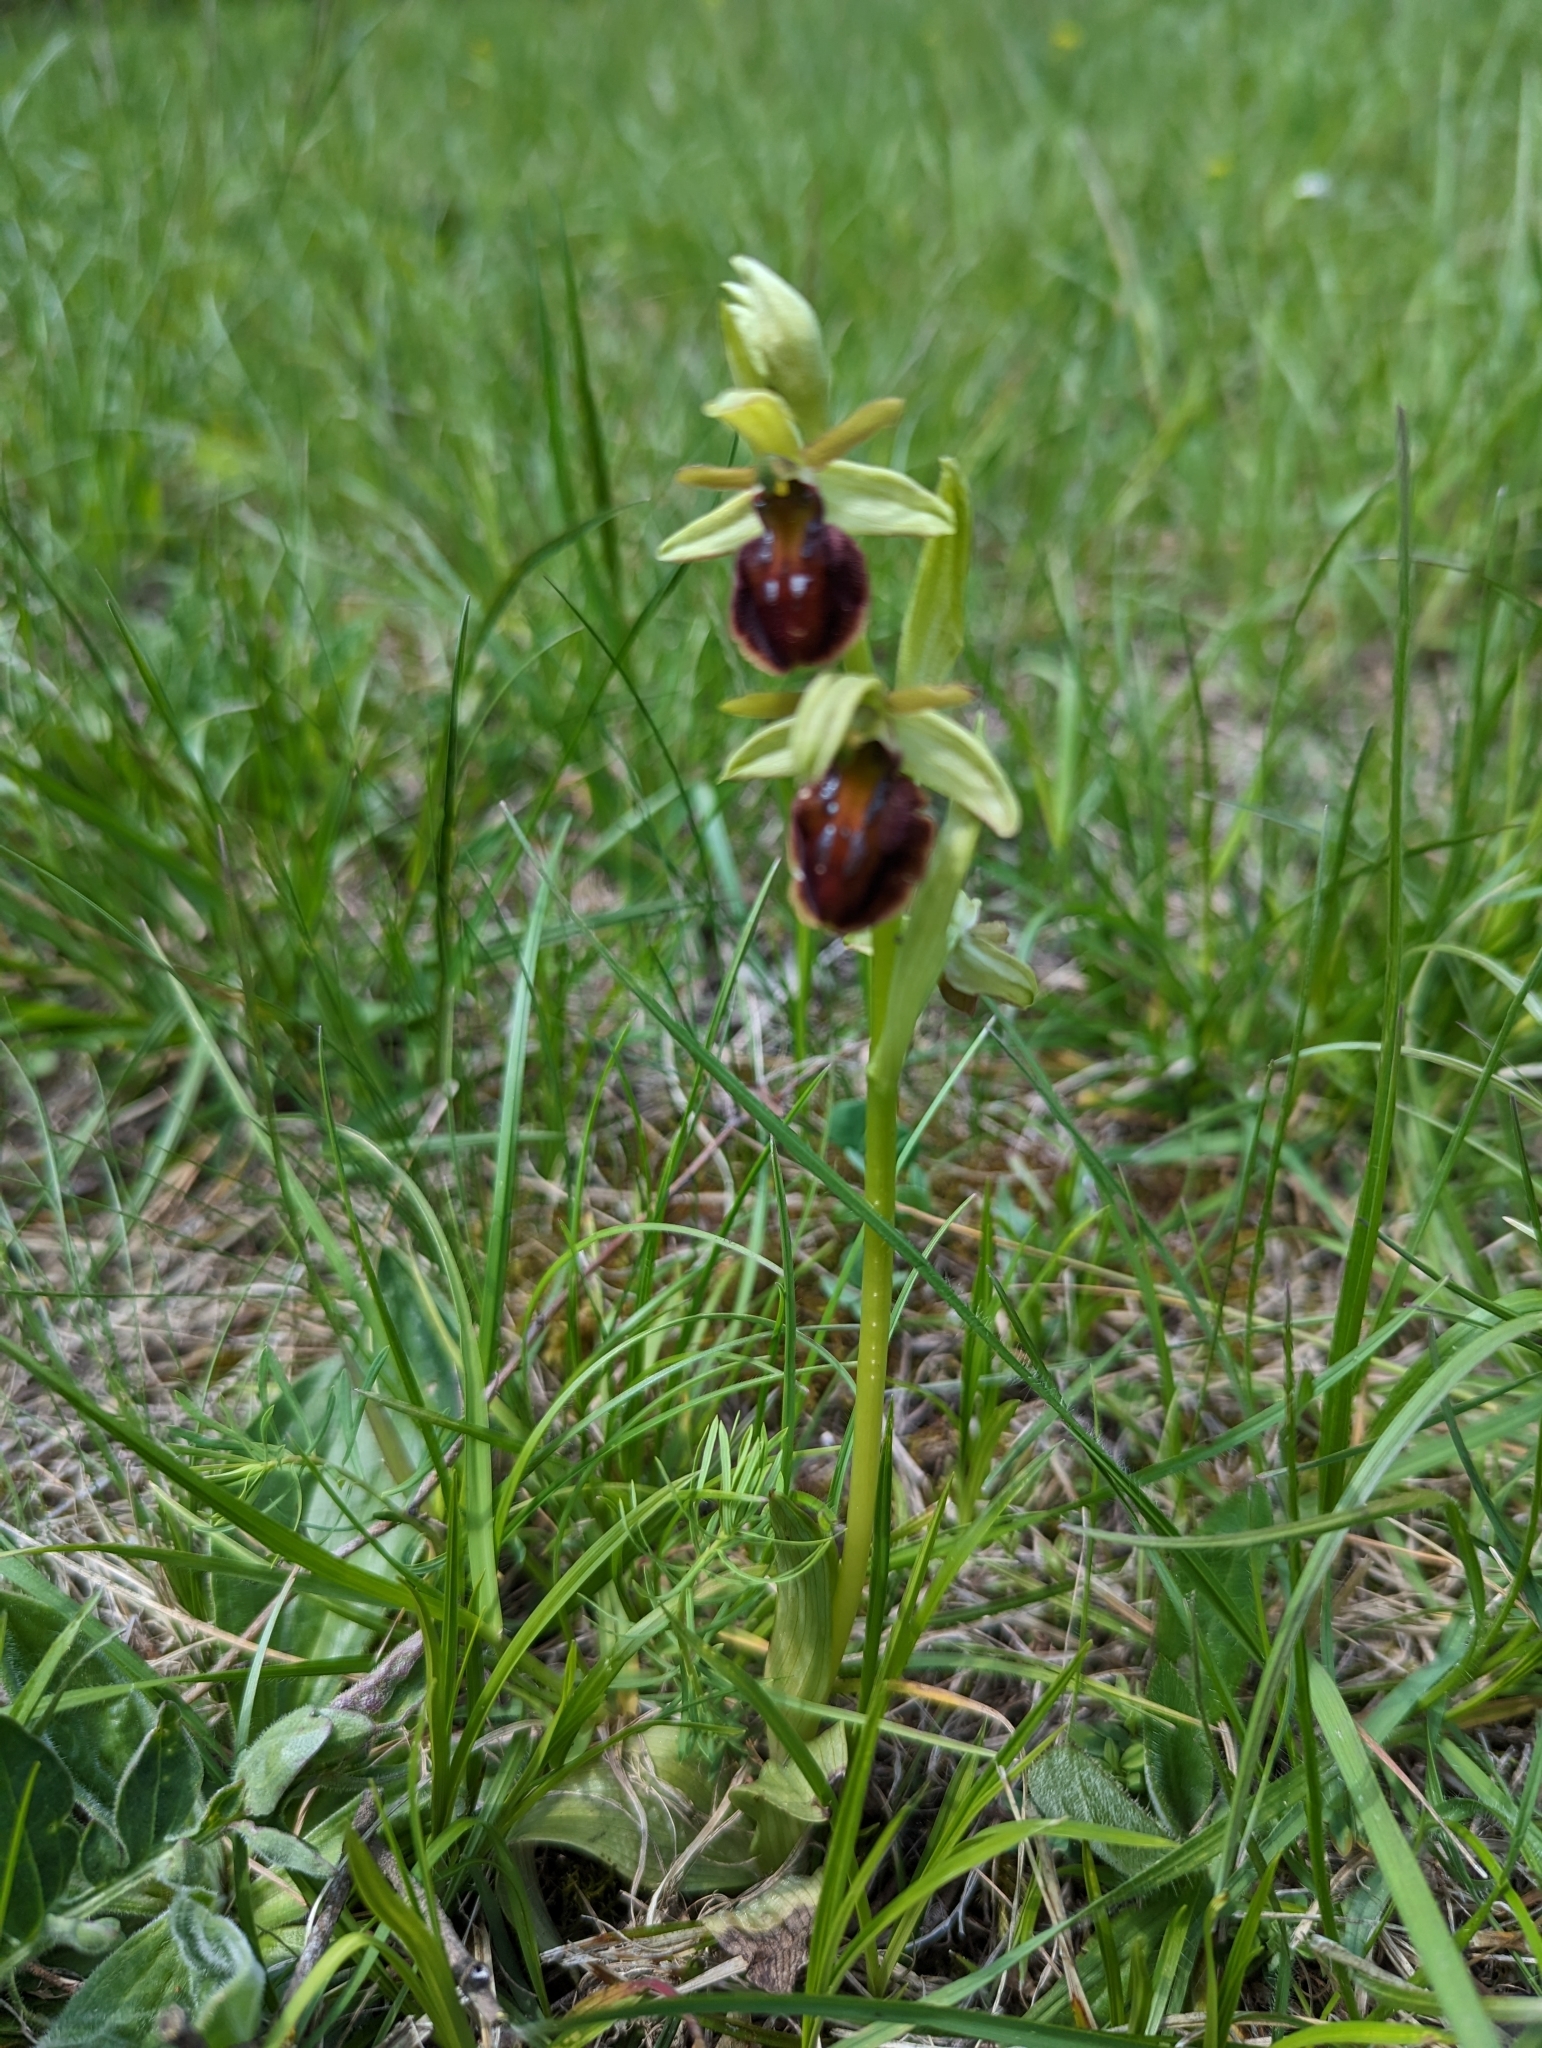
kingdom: Plantae
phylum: Tracheophyta
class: Liliopsida
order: Asparagales
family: Orchidaceae
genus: Ophrys
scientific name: Ophrys sphegodes
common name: Early spider-orchid
